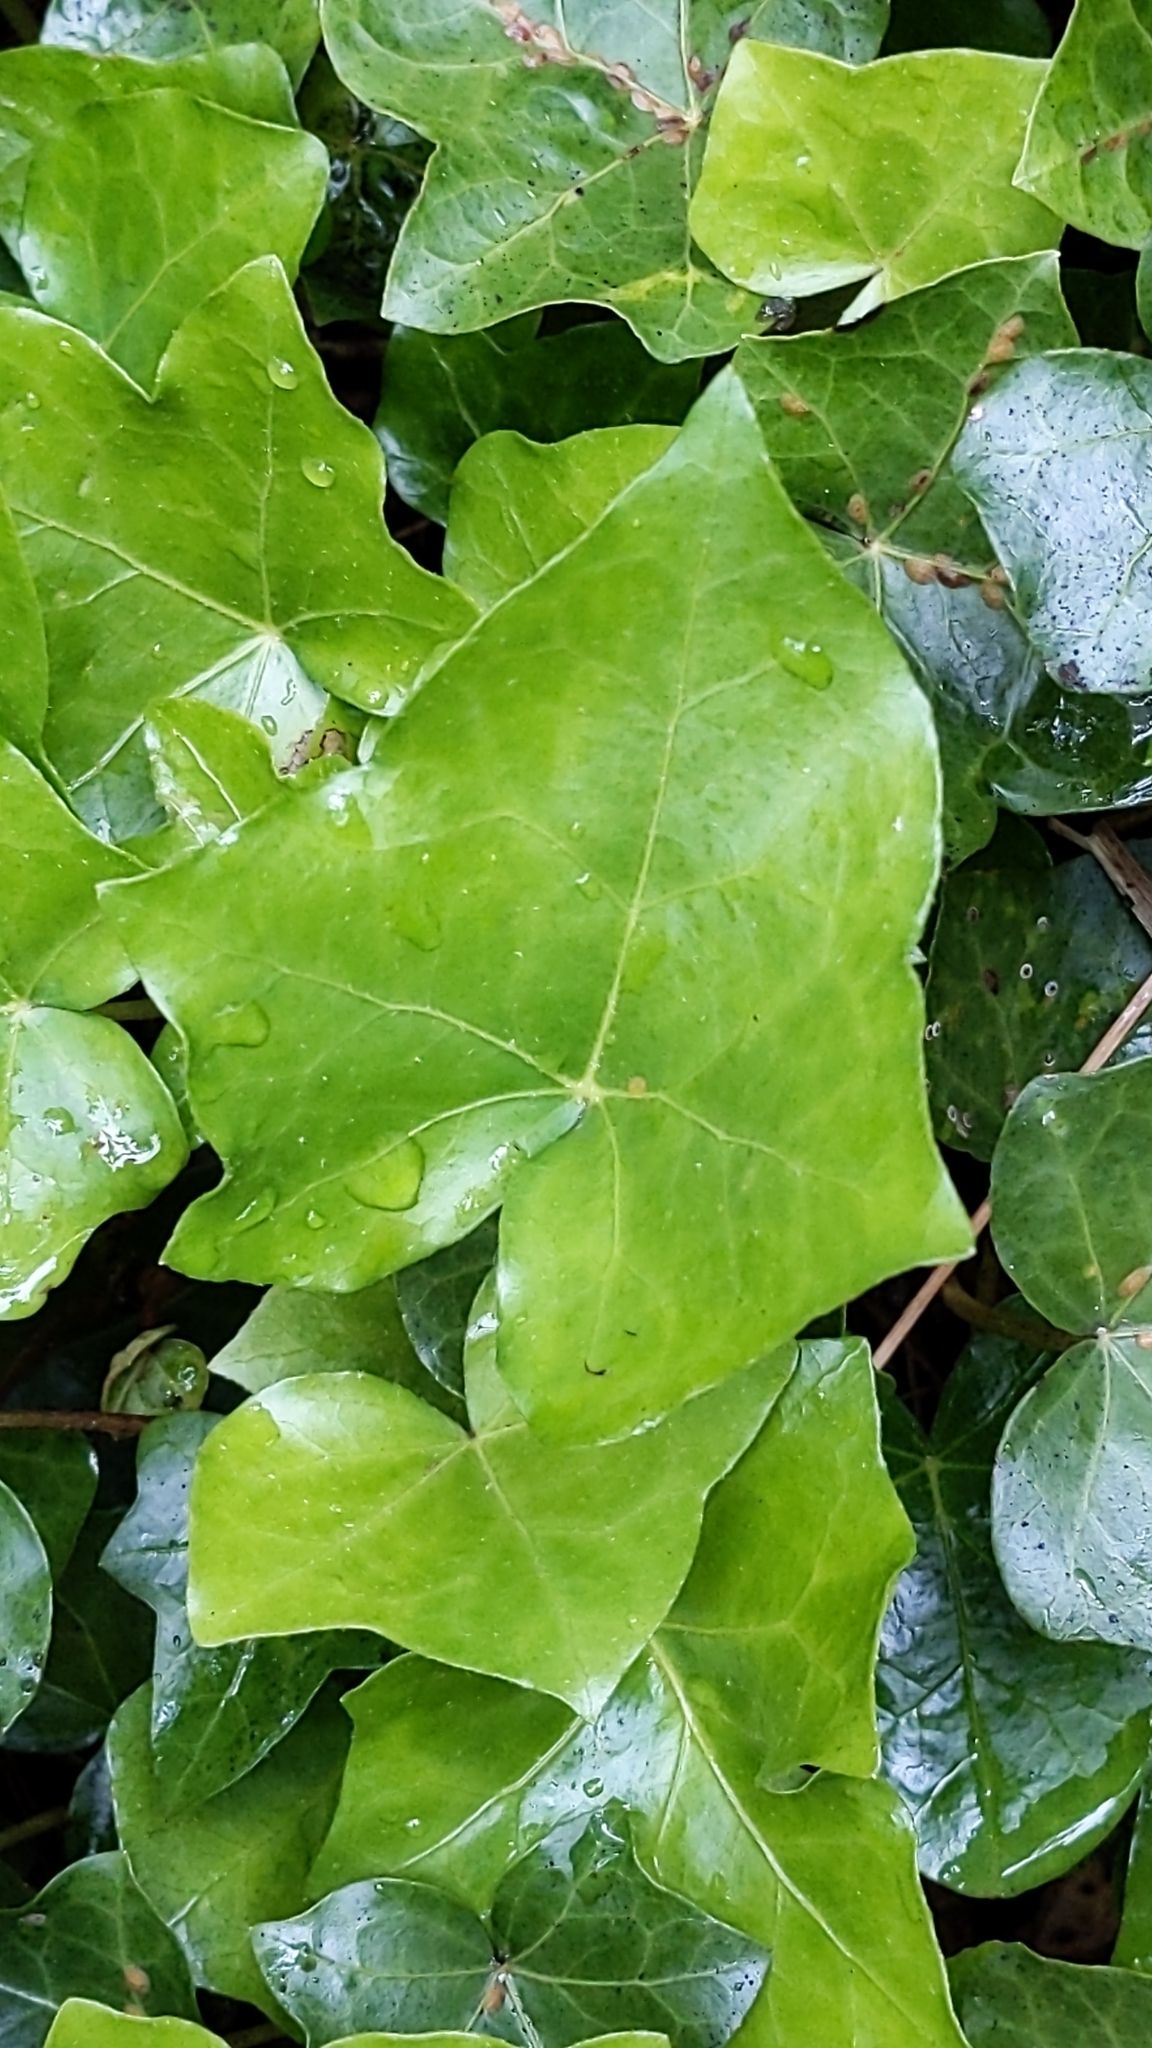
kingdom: Plantae
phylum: Tracheophyta
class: Magnoliopsida
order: Apiales
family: Araliaceae
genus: Hedera
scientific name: Hedera helix
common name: Ivy
